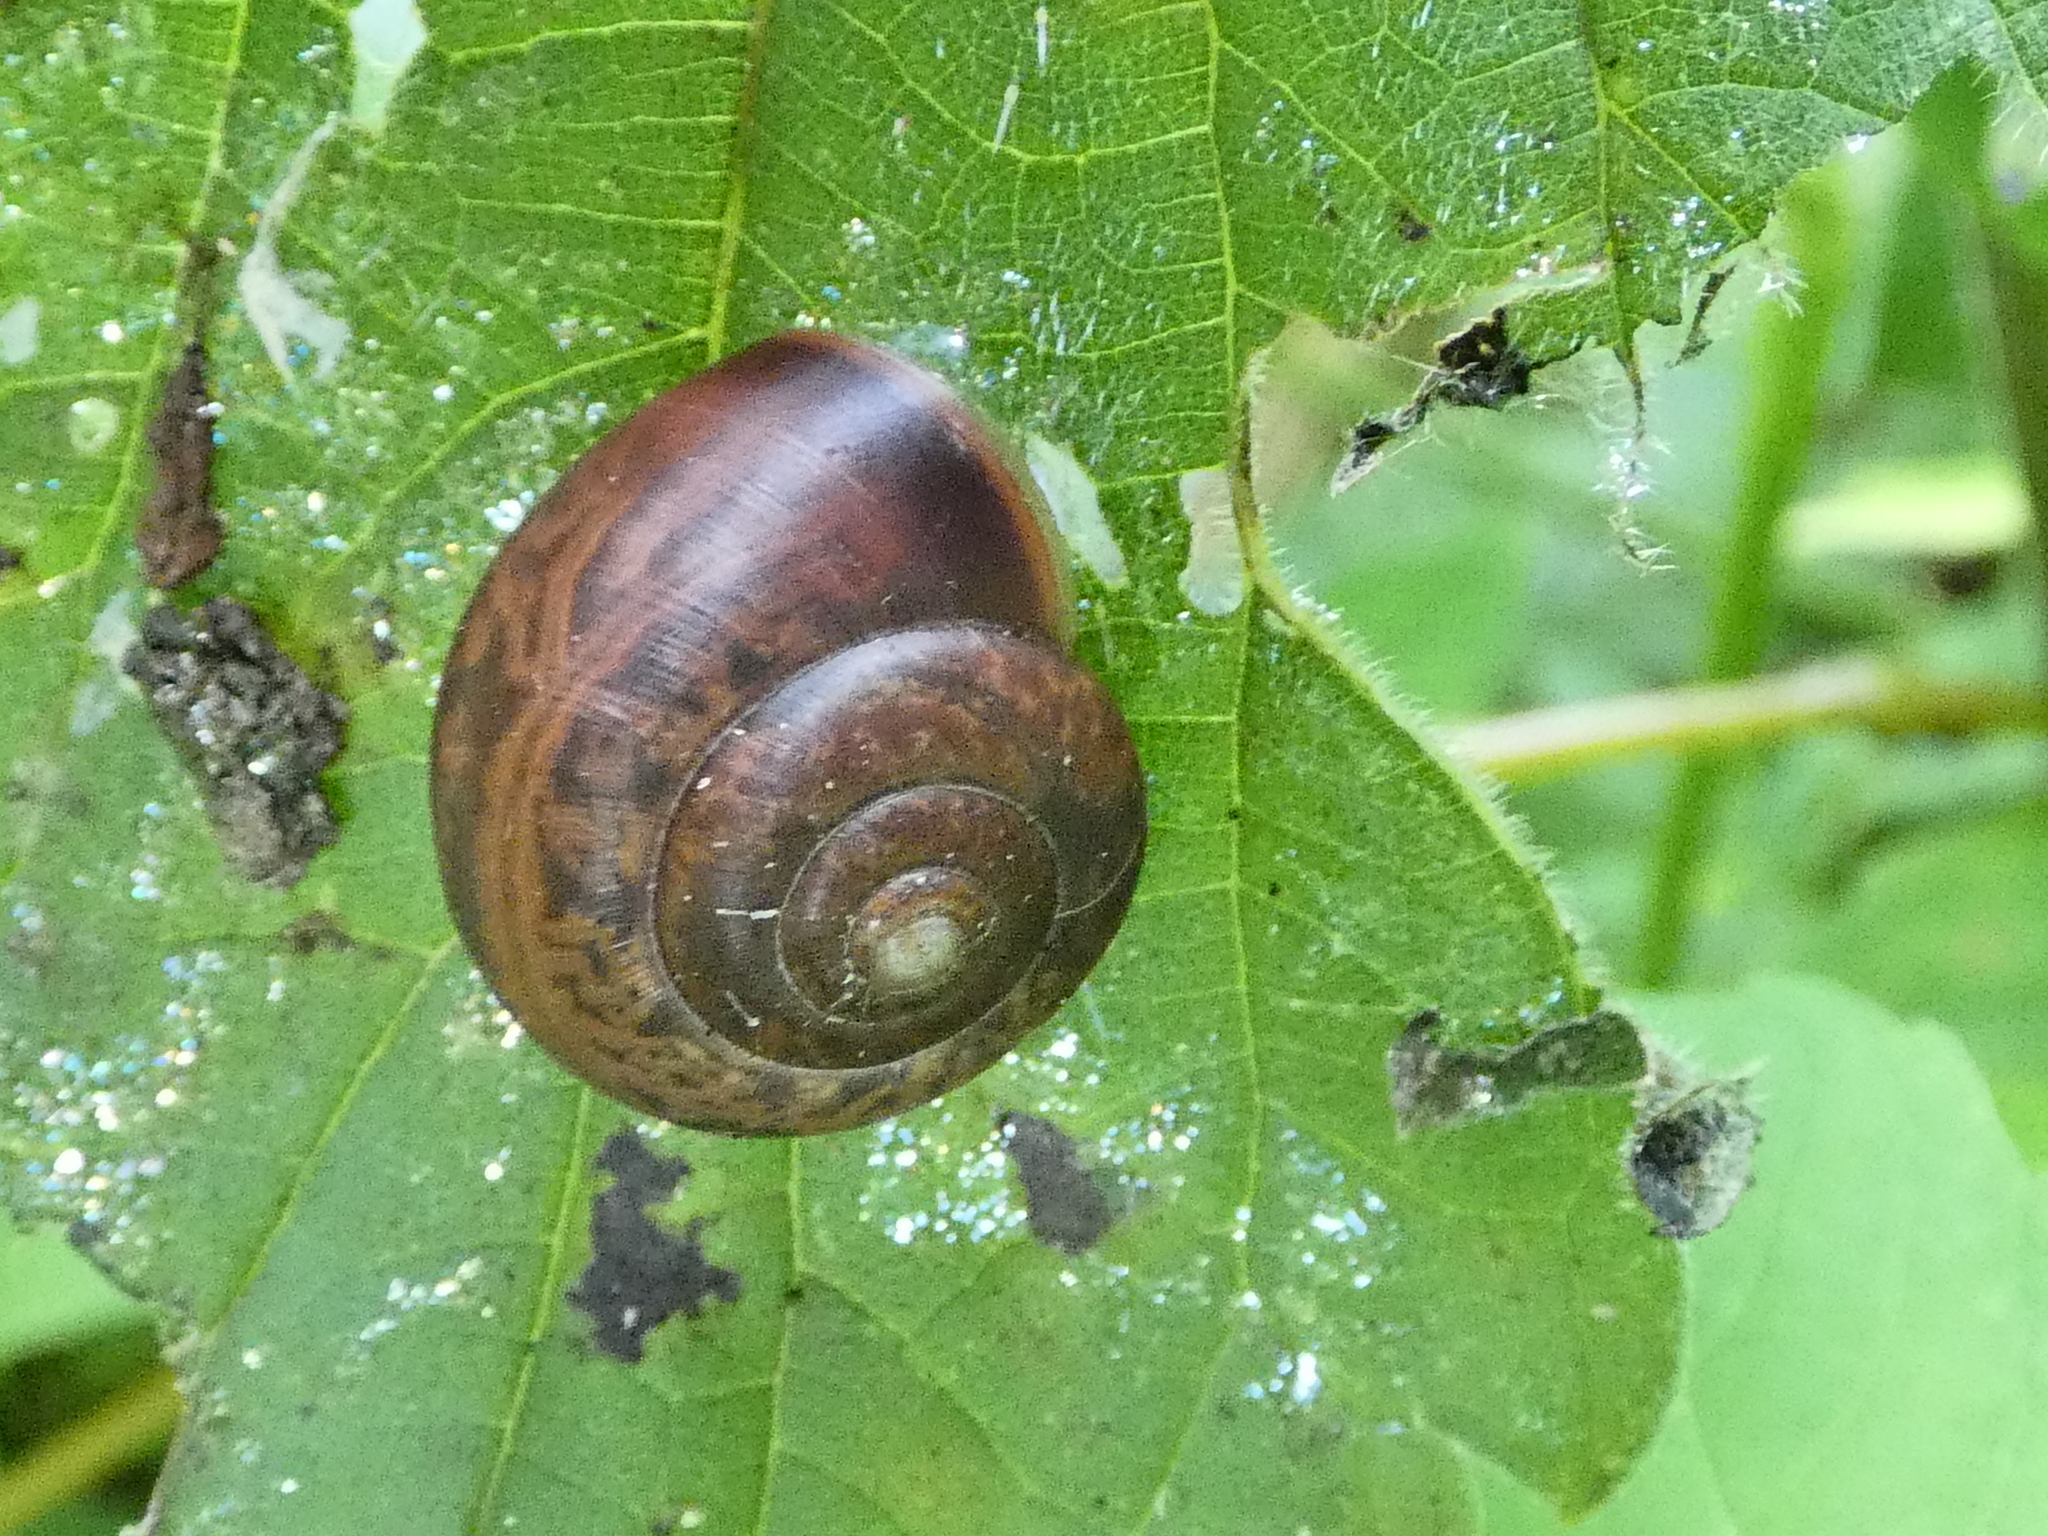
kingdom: Animalia
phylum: Mollusca
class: Gastropoda
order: Stylommatophora
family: Camaenidae
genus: Fruticicola
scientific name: Fruticicola fruticum
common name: Bush snail
